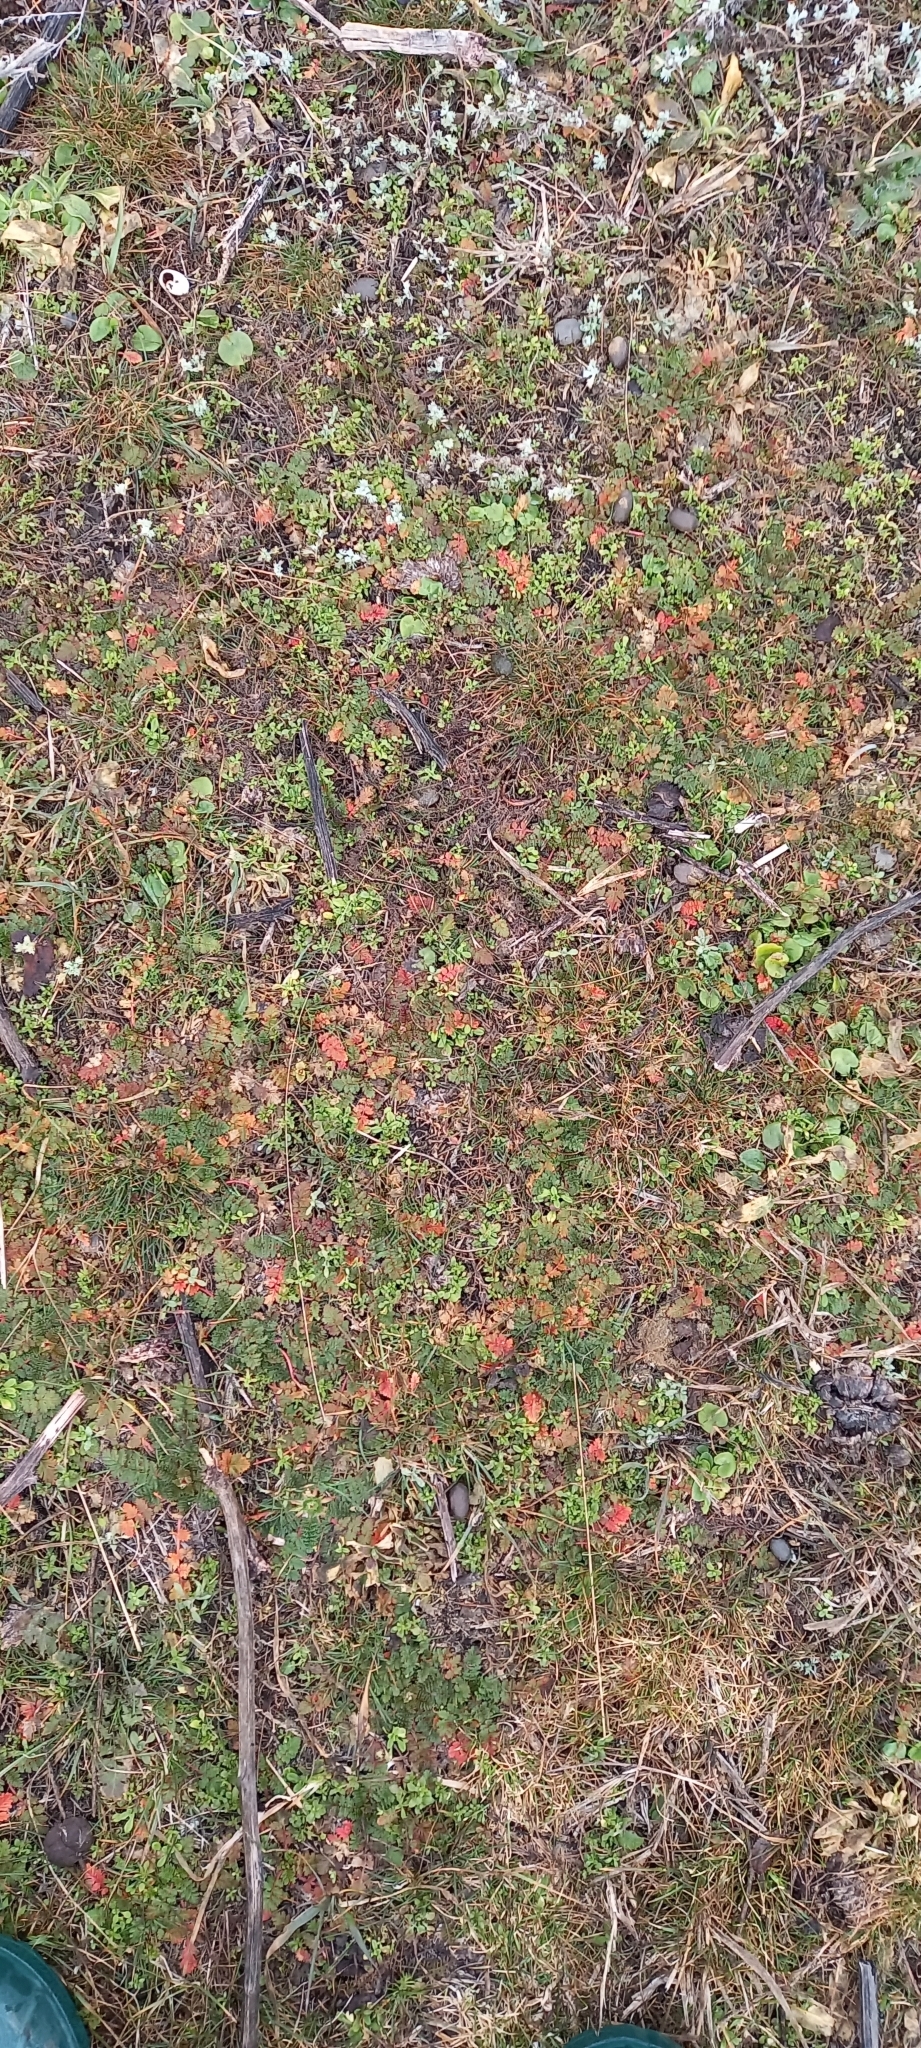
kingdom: Plantae
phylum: Tracheophyta
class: Magnoliopsida
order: Geraniales
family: Geraniaceae
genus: Erodium
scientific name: Erodium cicutarium
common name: Common stork's-bill
